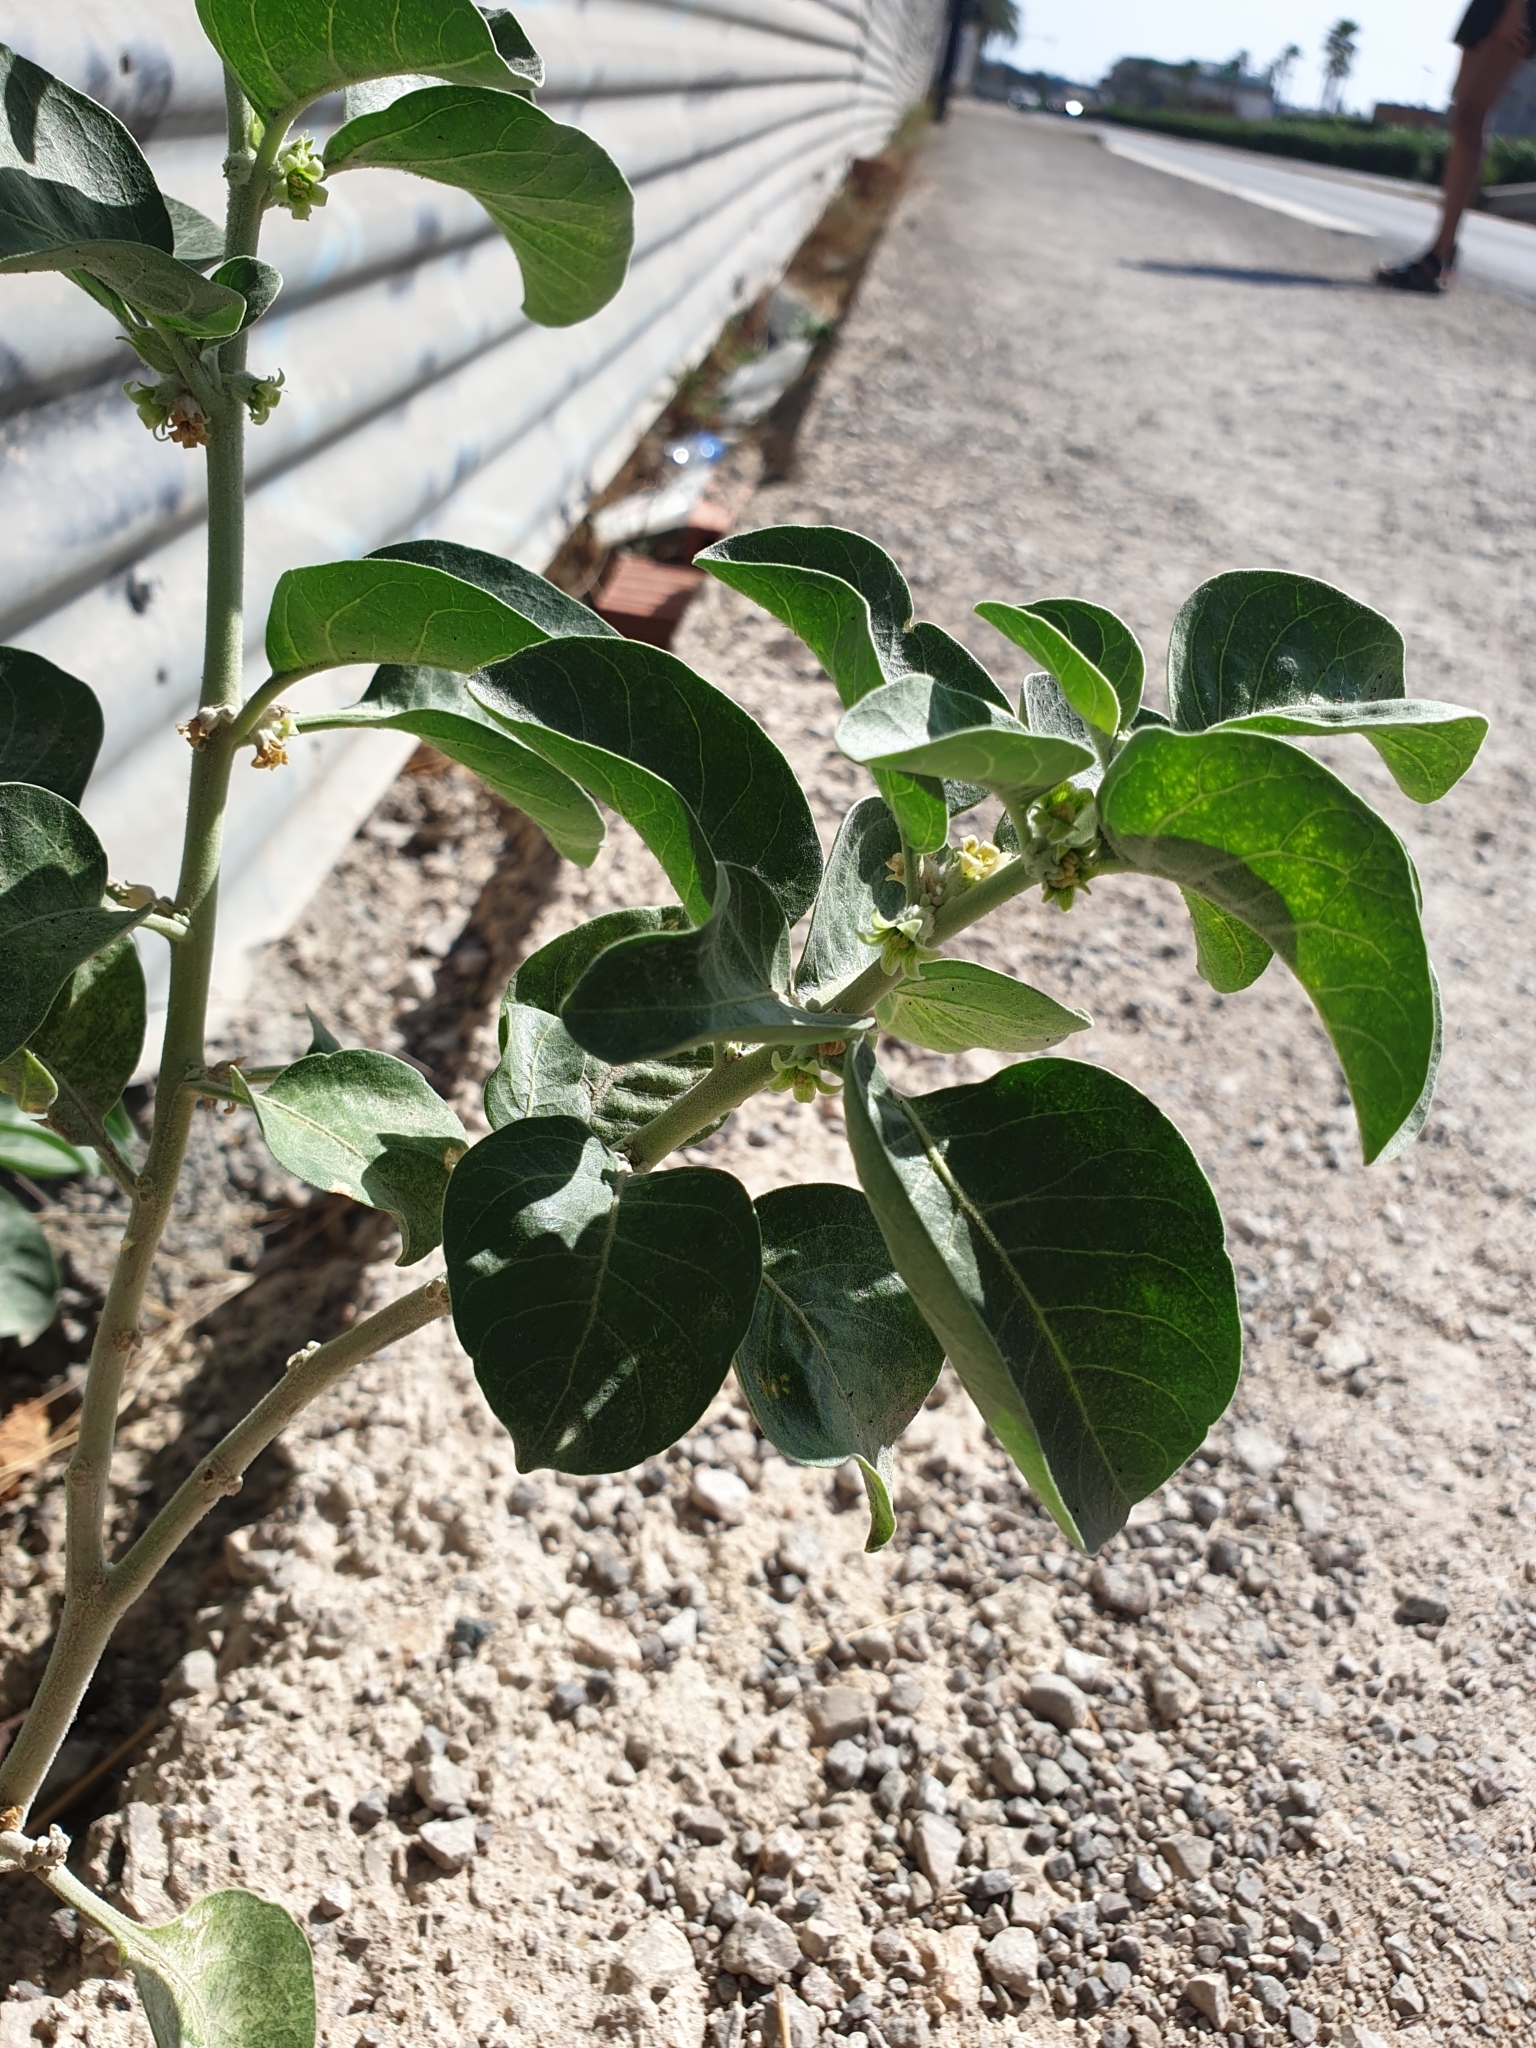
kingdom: Plantae
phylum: Tracheophyta
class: Magnoliopsida
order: Solanales
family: Solanaceae
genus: Withania
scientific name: Withania somnifera
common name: Winter-cherry
